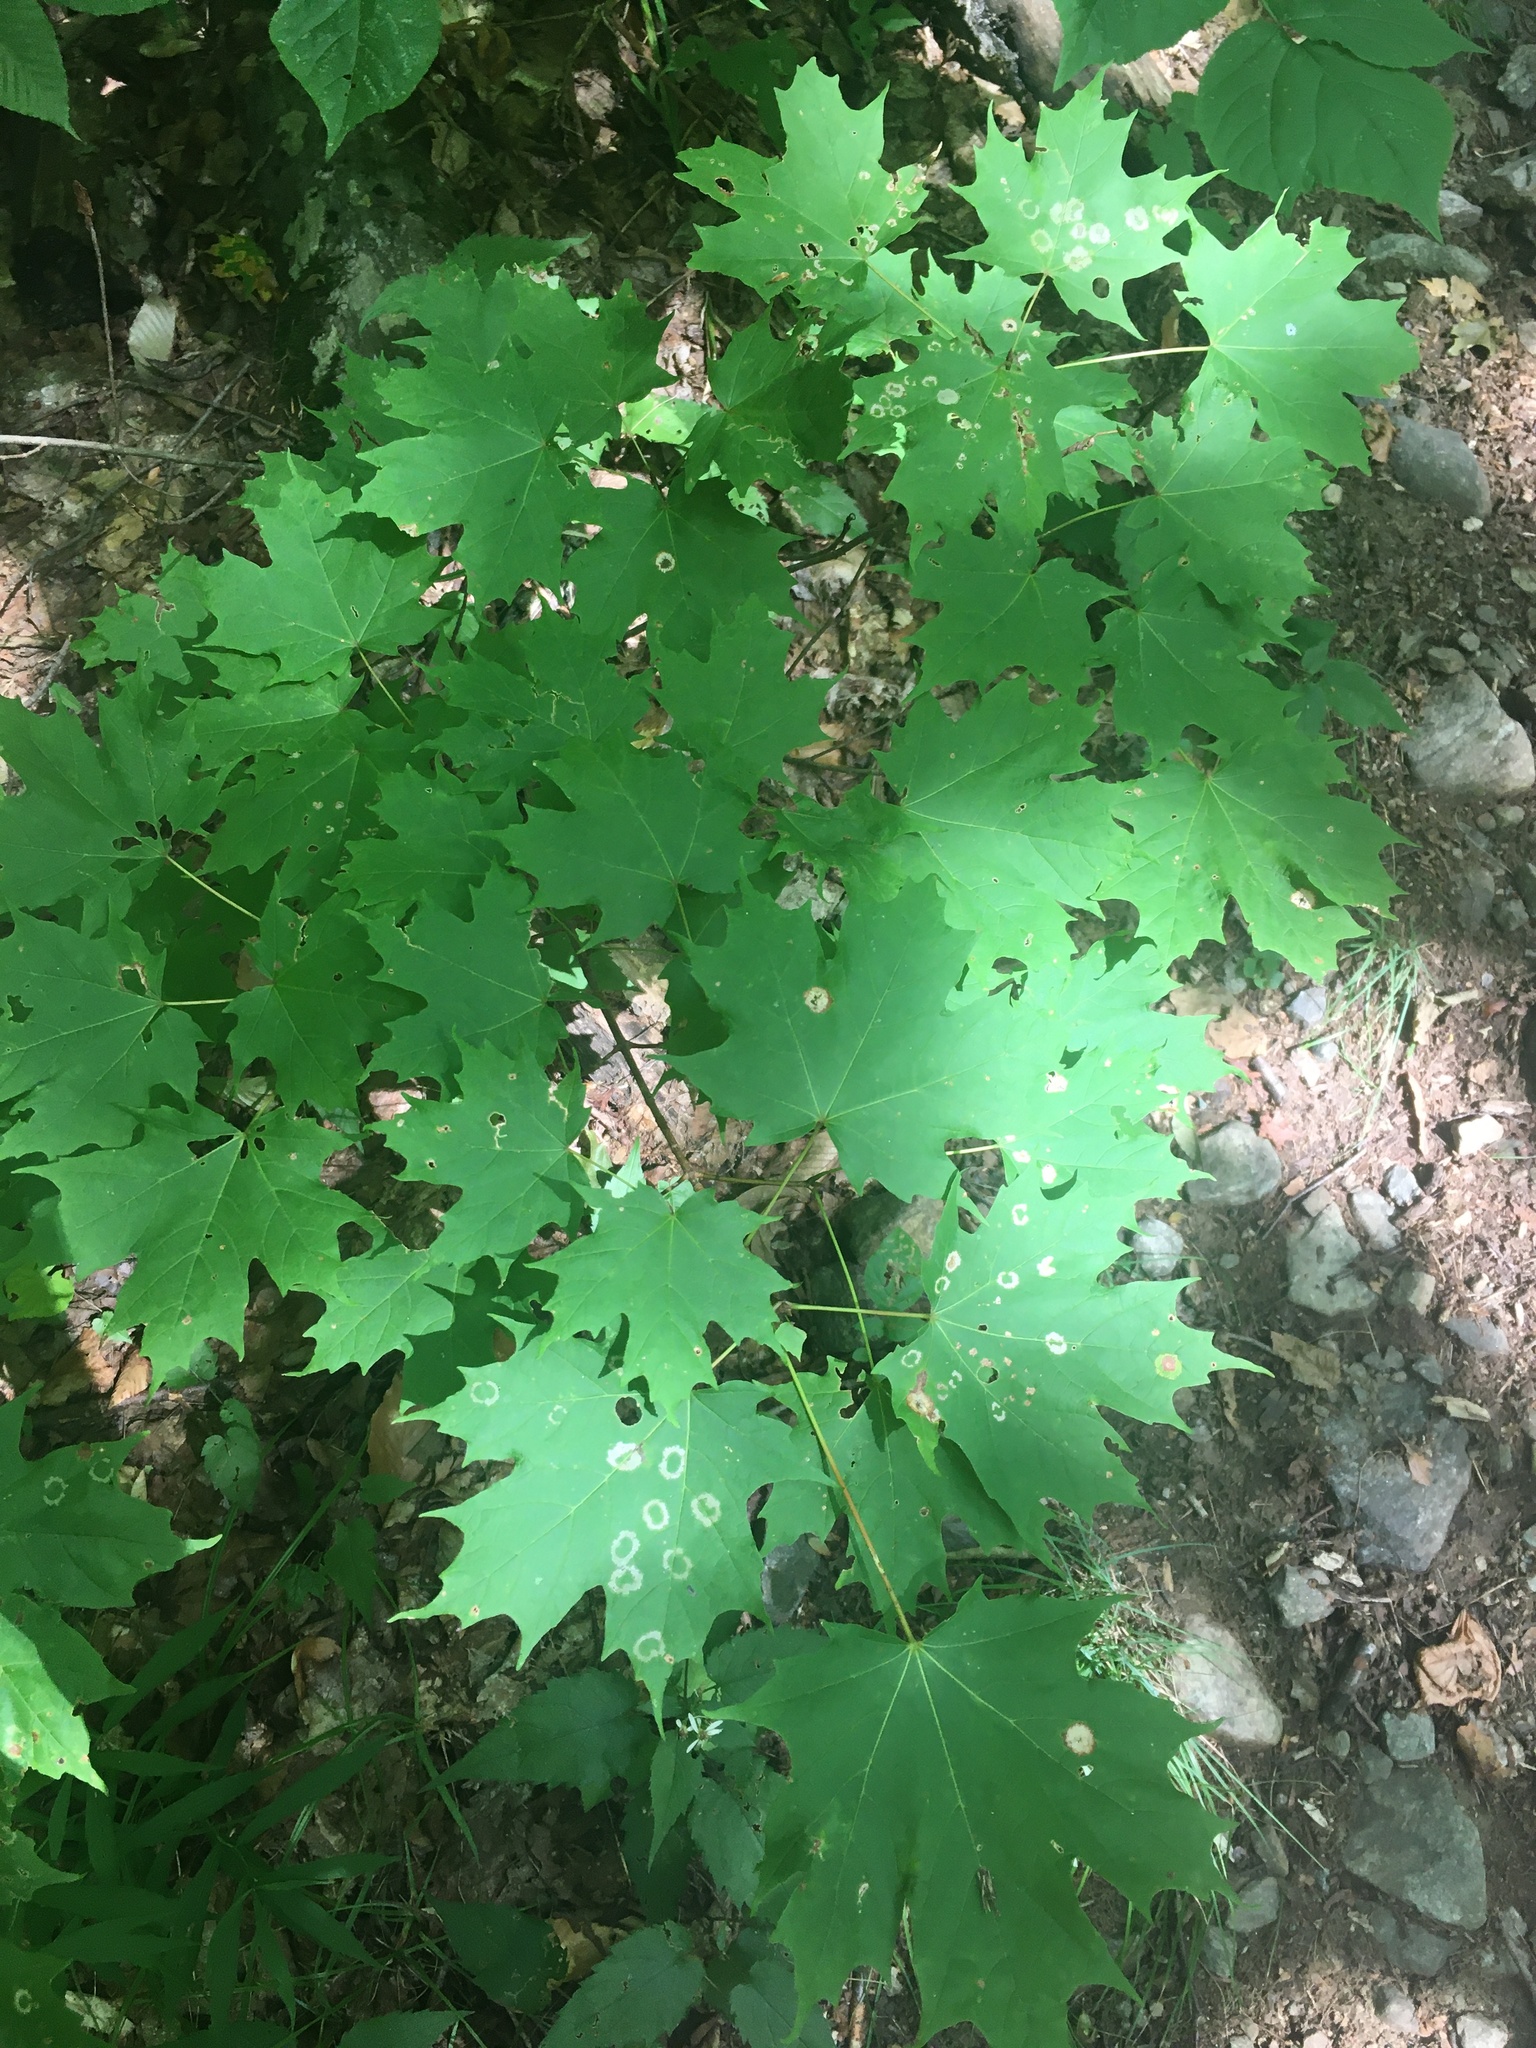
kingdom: Animalia
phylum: Arthropoda
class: Insecta
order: Diptera
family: Cecidomyiidae
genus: Acericecis
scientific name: Acericecis ocellaris
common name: Ocellate gall midge
